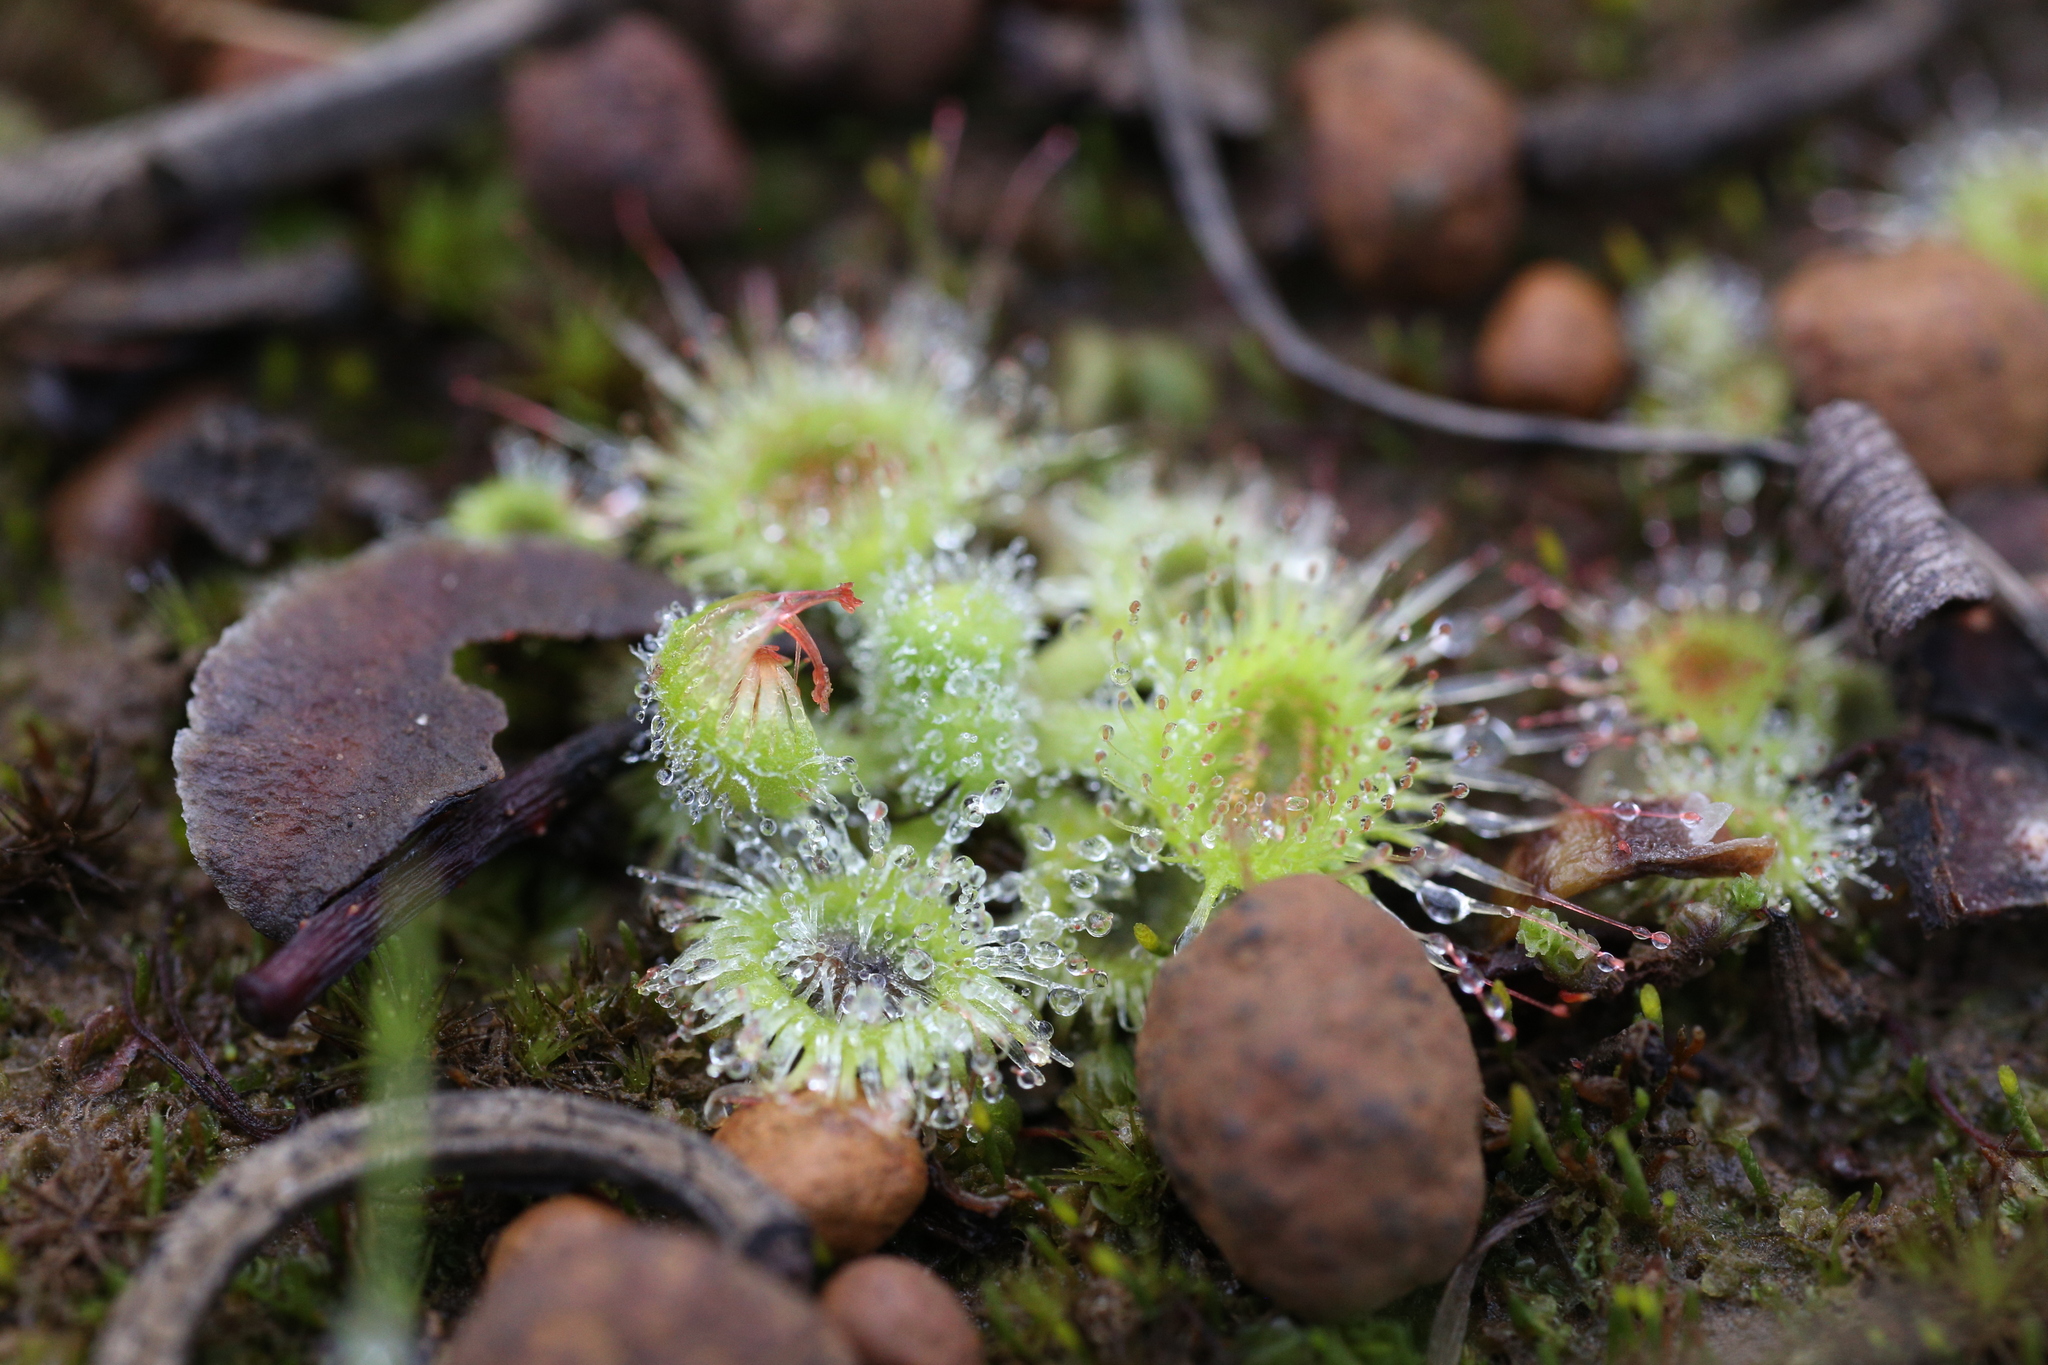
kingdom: Plantae
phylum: Tracheophyta
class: Magnoliopsida
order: Caryophyllales
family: Droseraceae
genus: Drosera
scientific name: Drosera glanduligera
